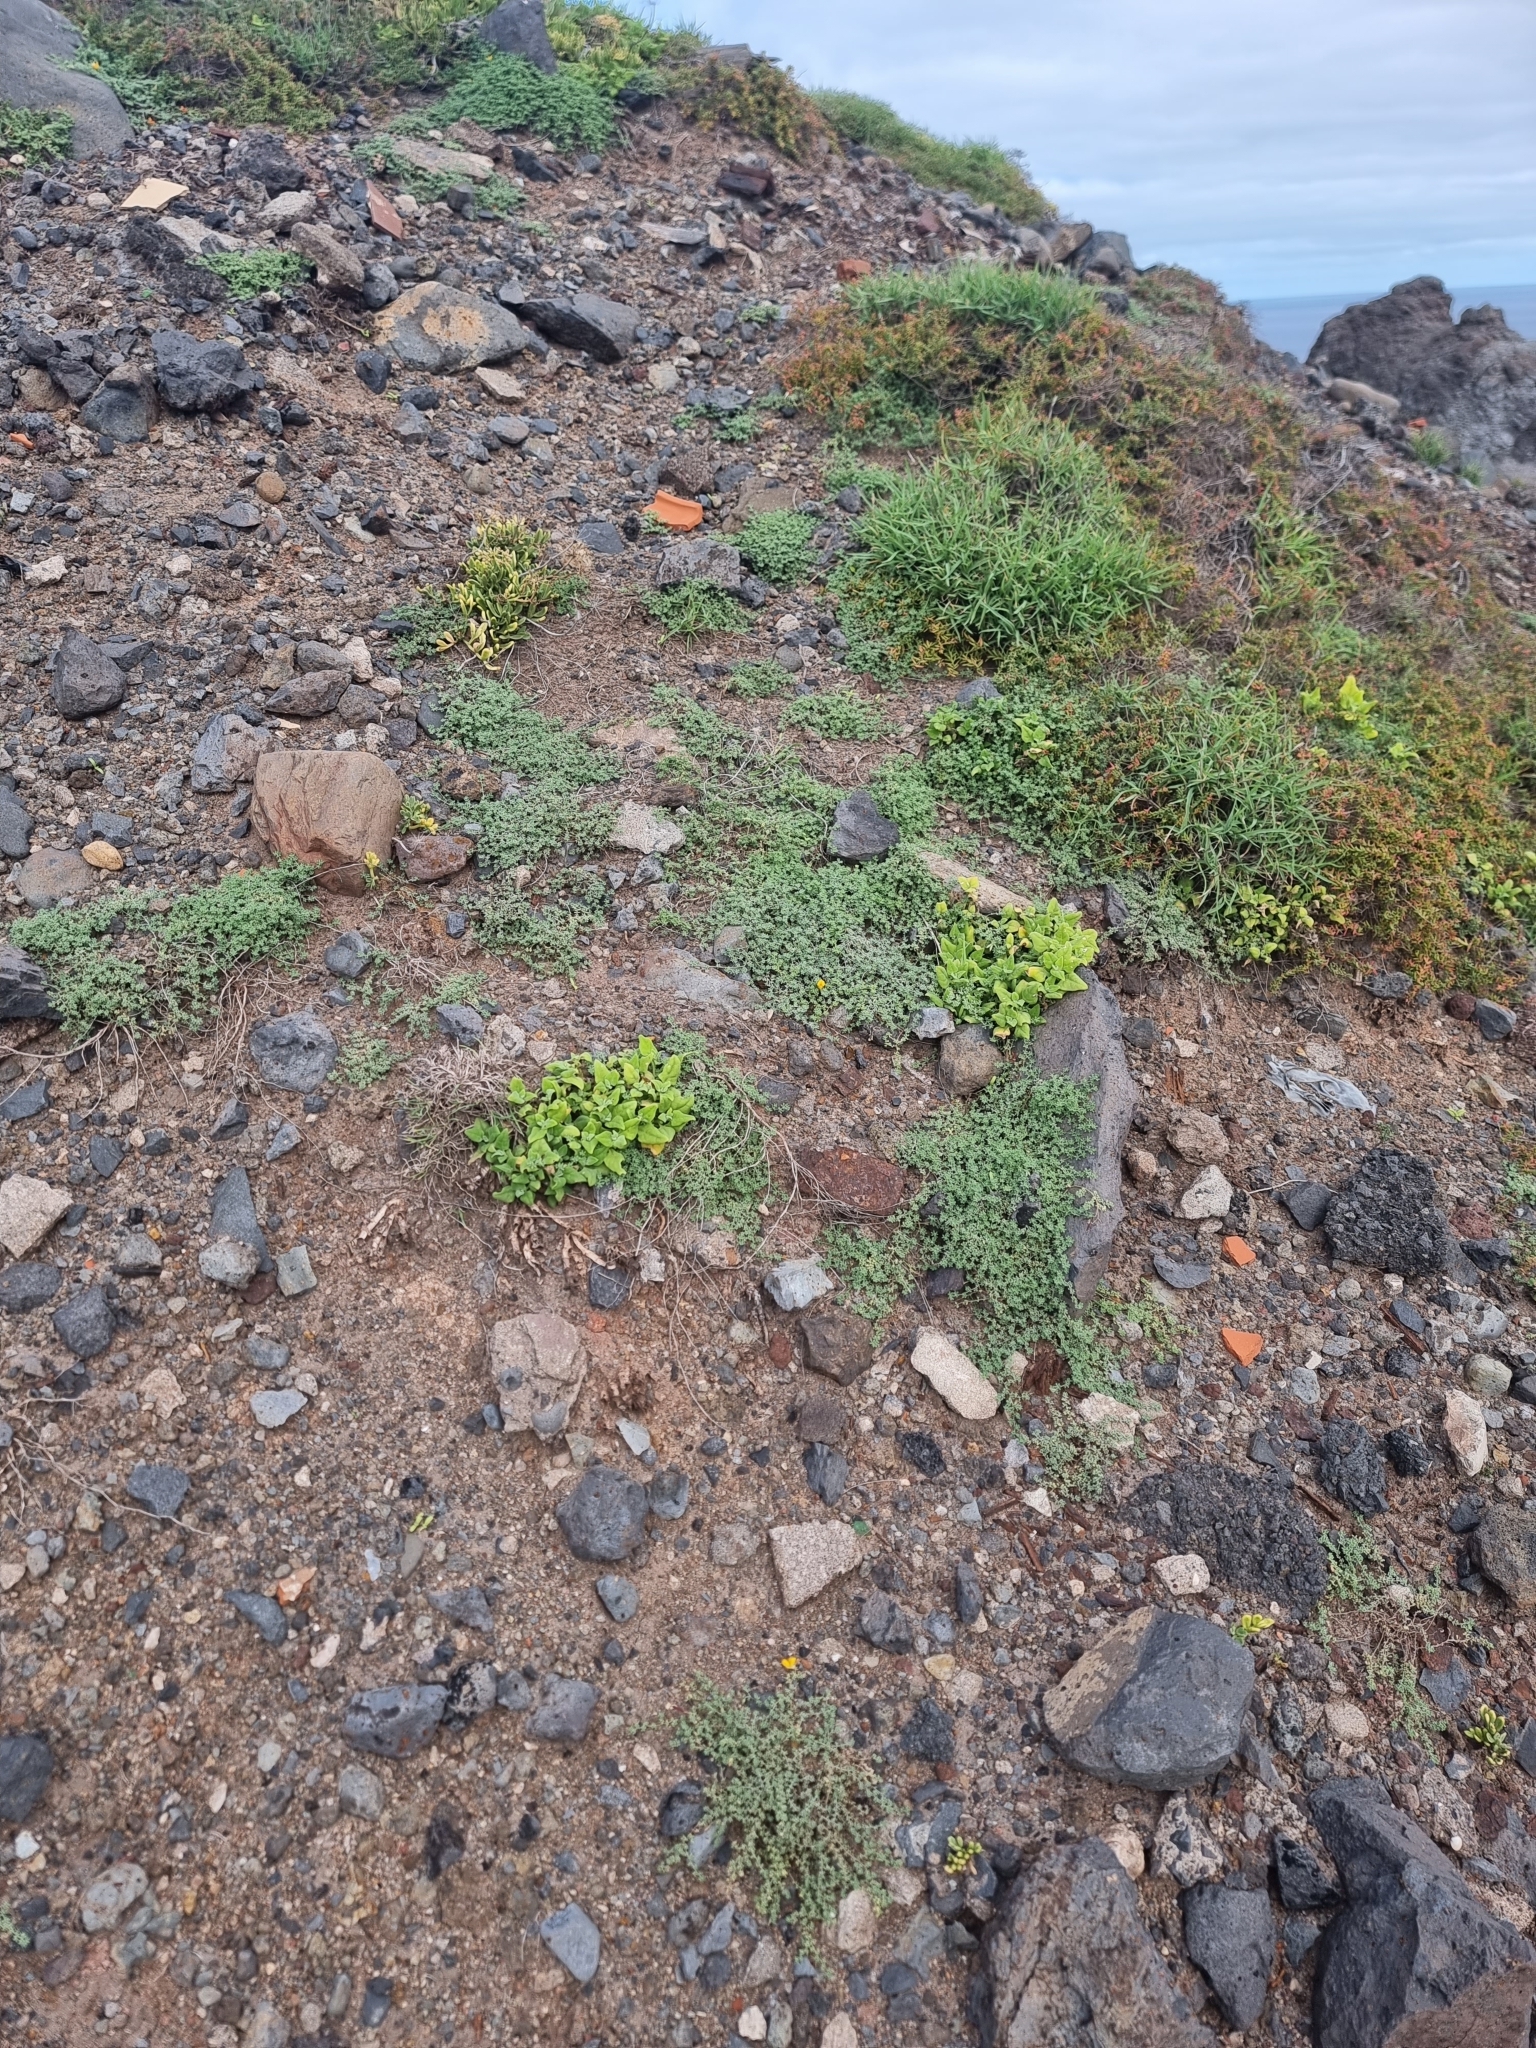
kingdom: Plantae
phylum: Tracheophyta
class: Magnoliopsida
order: Caryophyllales
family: Aizoaceae
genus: Tetragonia
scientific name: Tetragonia tetragonoides
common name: New zealand-spinach
